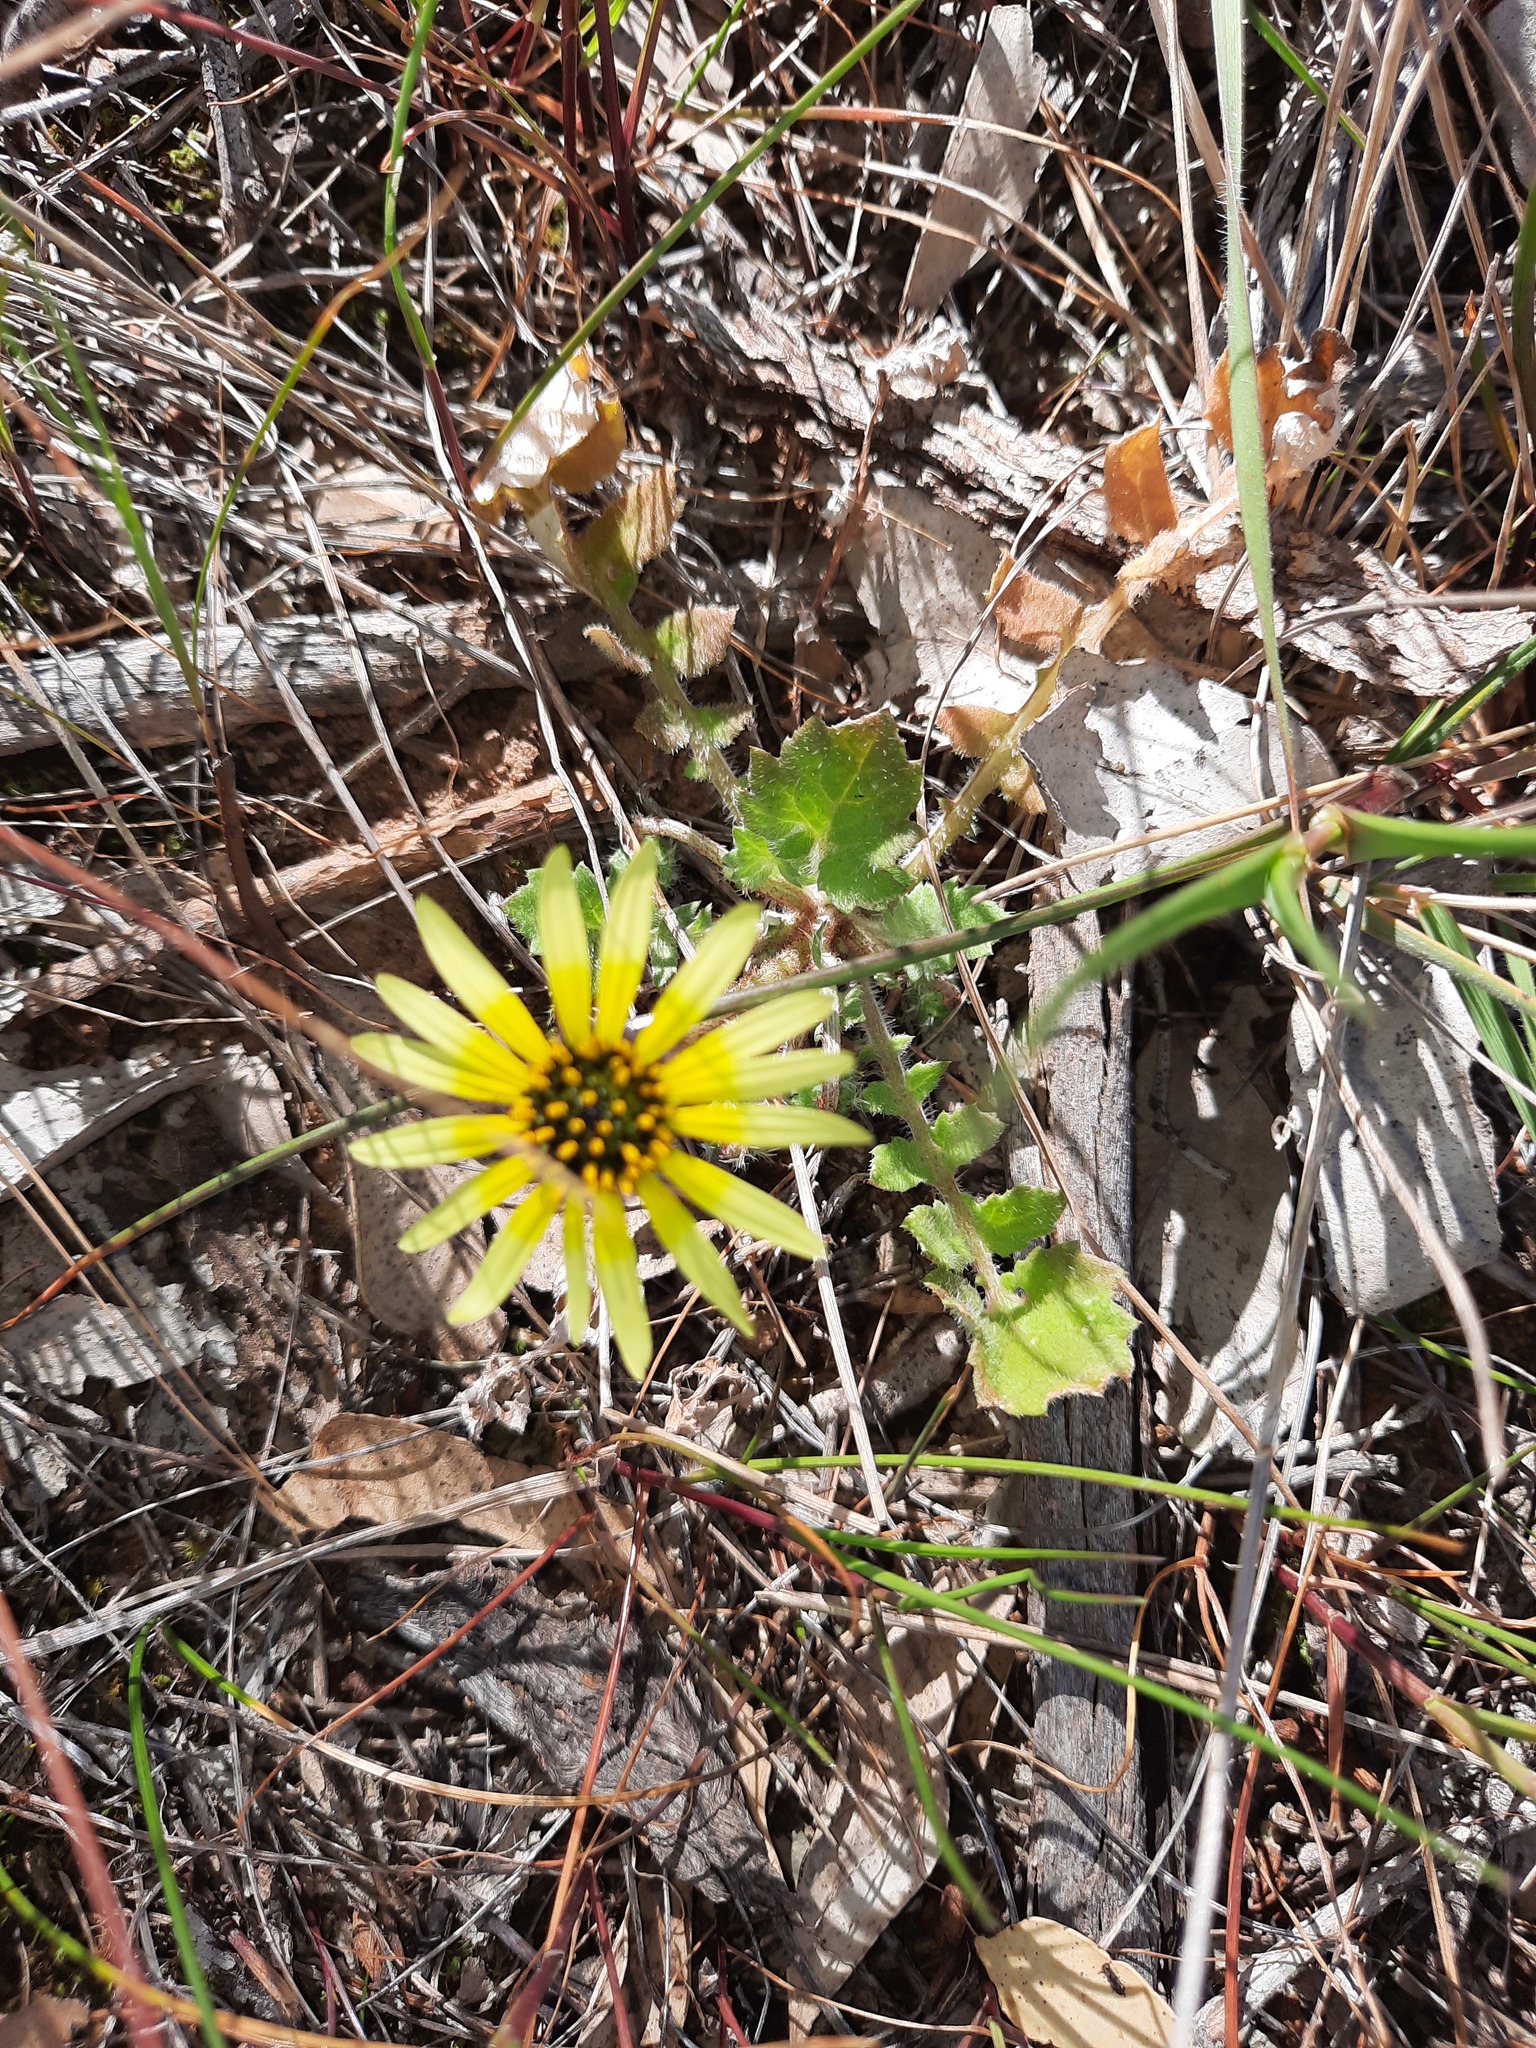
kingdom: Plantae
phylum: Tracheophyta
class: Magnoliopsida
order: Asterales
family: Asteraceae
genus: Arctotheca
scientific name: Arctotheca calendula
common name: Capeweed
